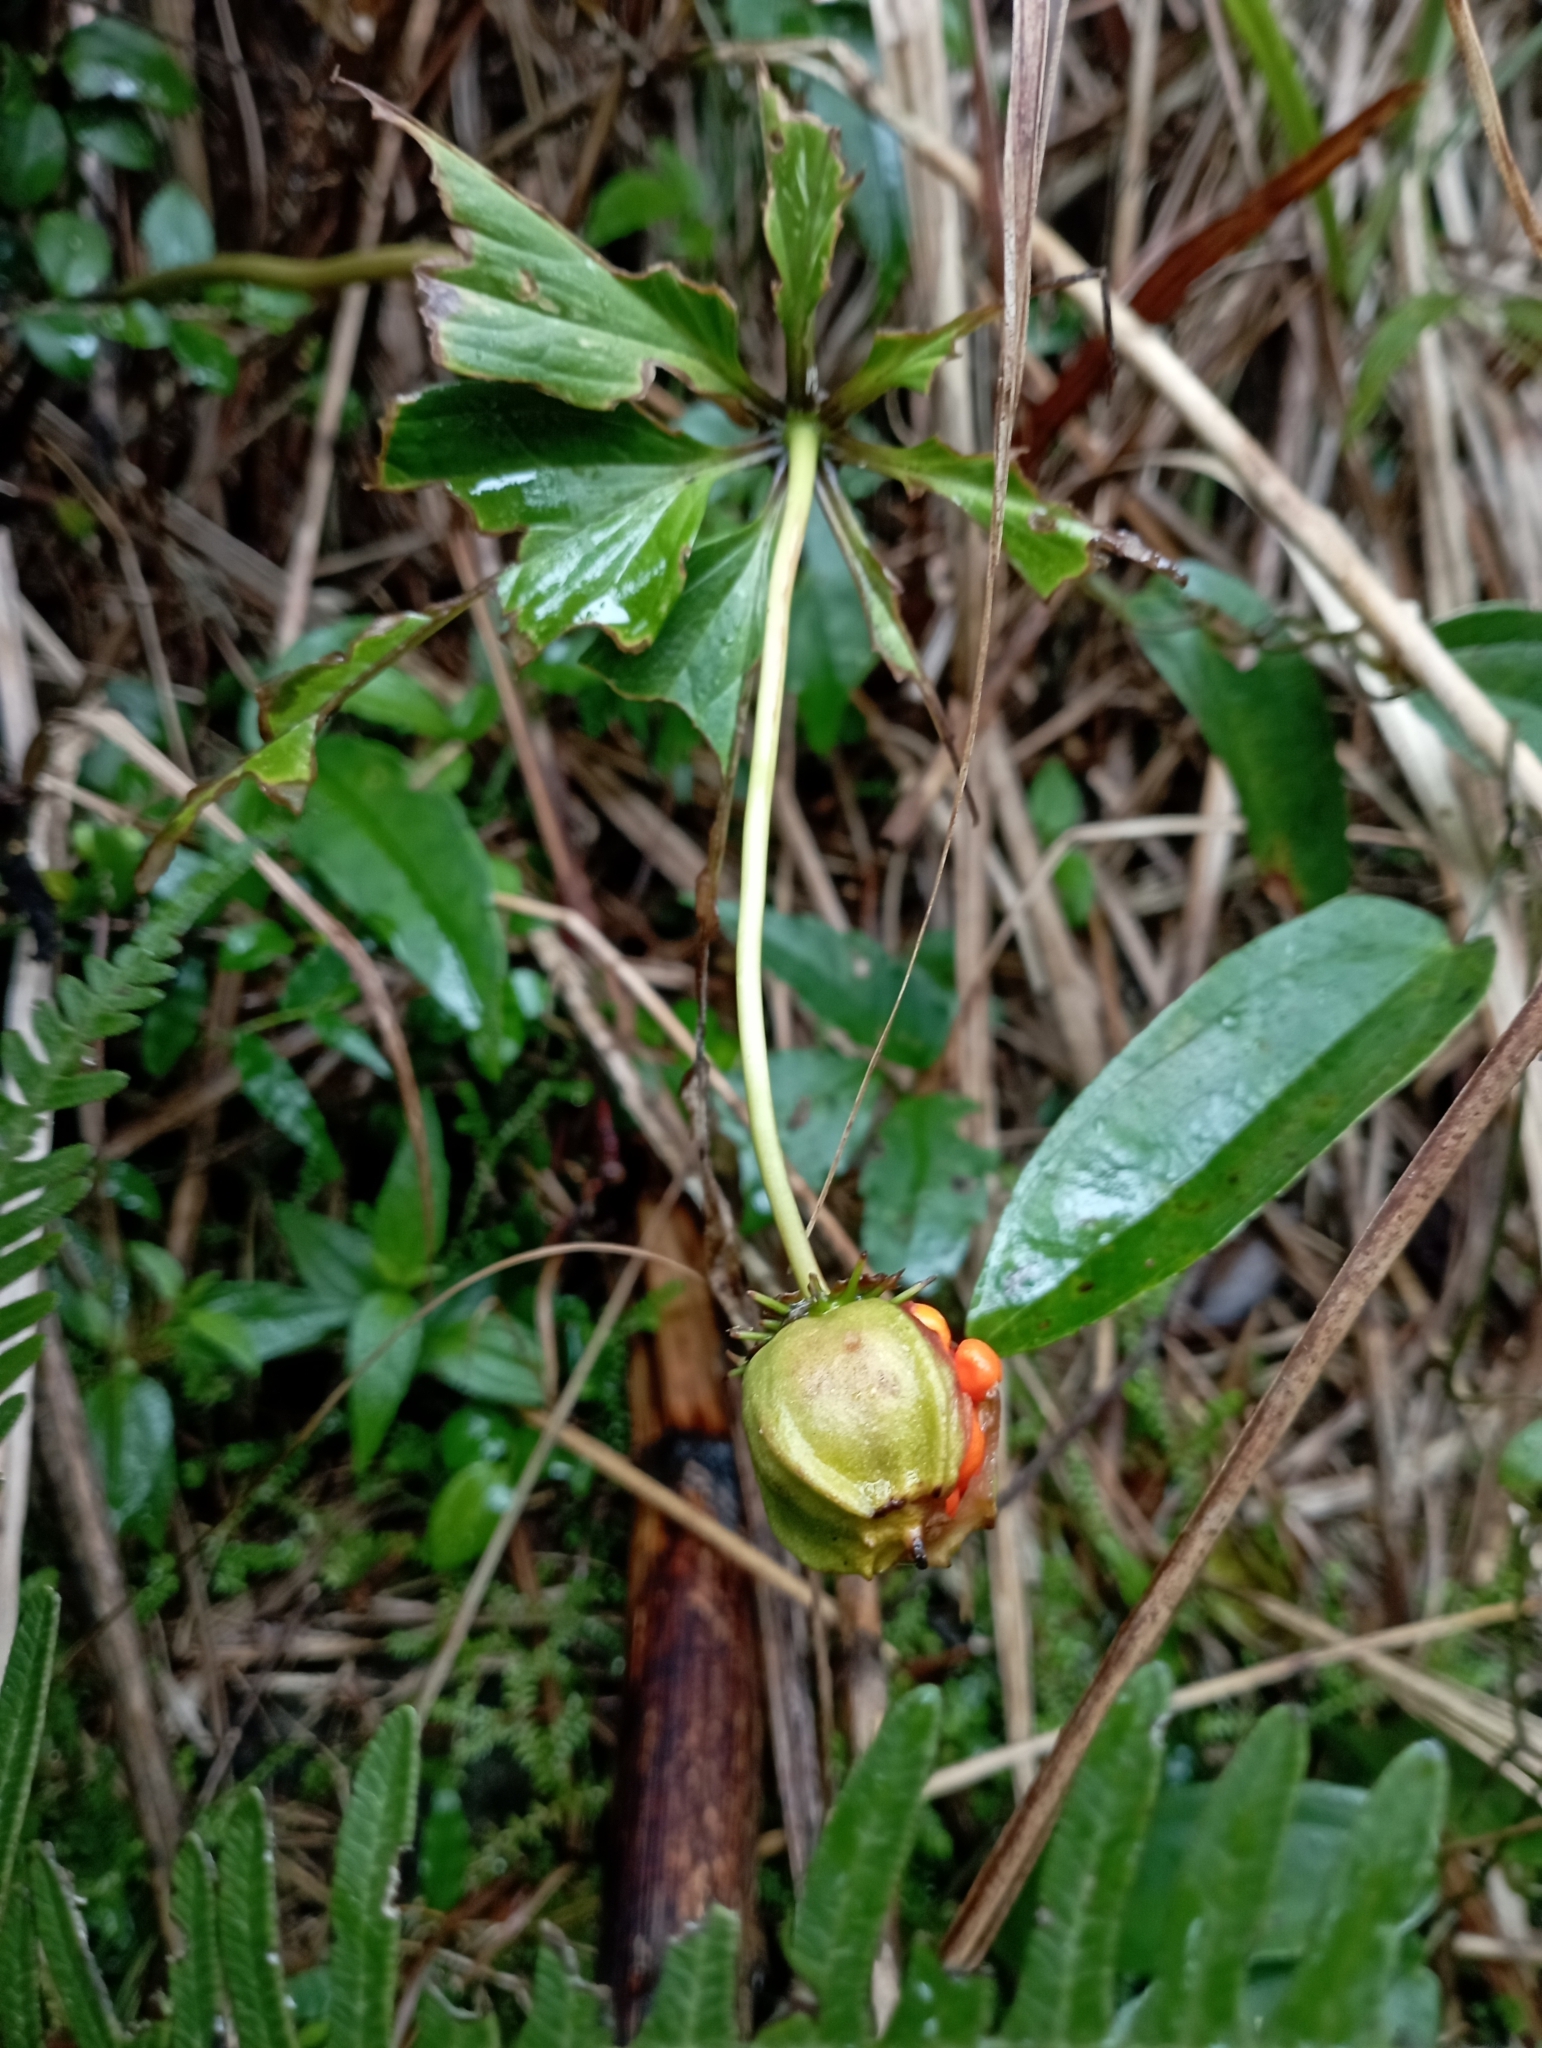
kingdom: Plantae
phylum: Tracheophyta
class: Liliopsida
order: Liliales
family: Melanthiaceae
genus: Paris
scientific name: Paris polyphylla
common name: Love apple
